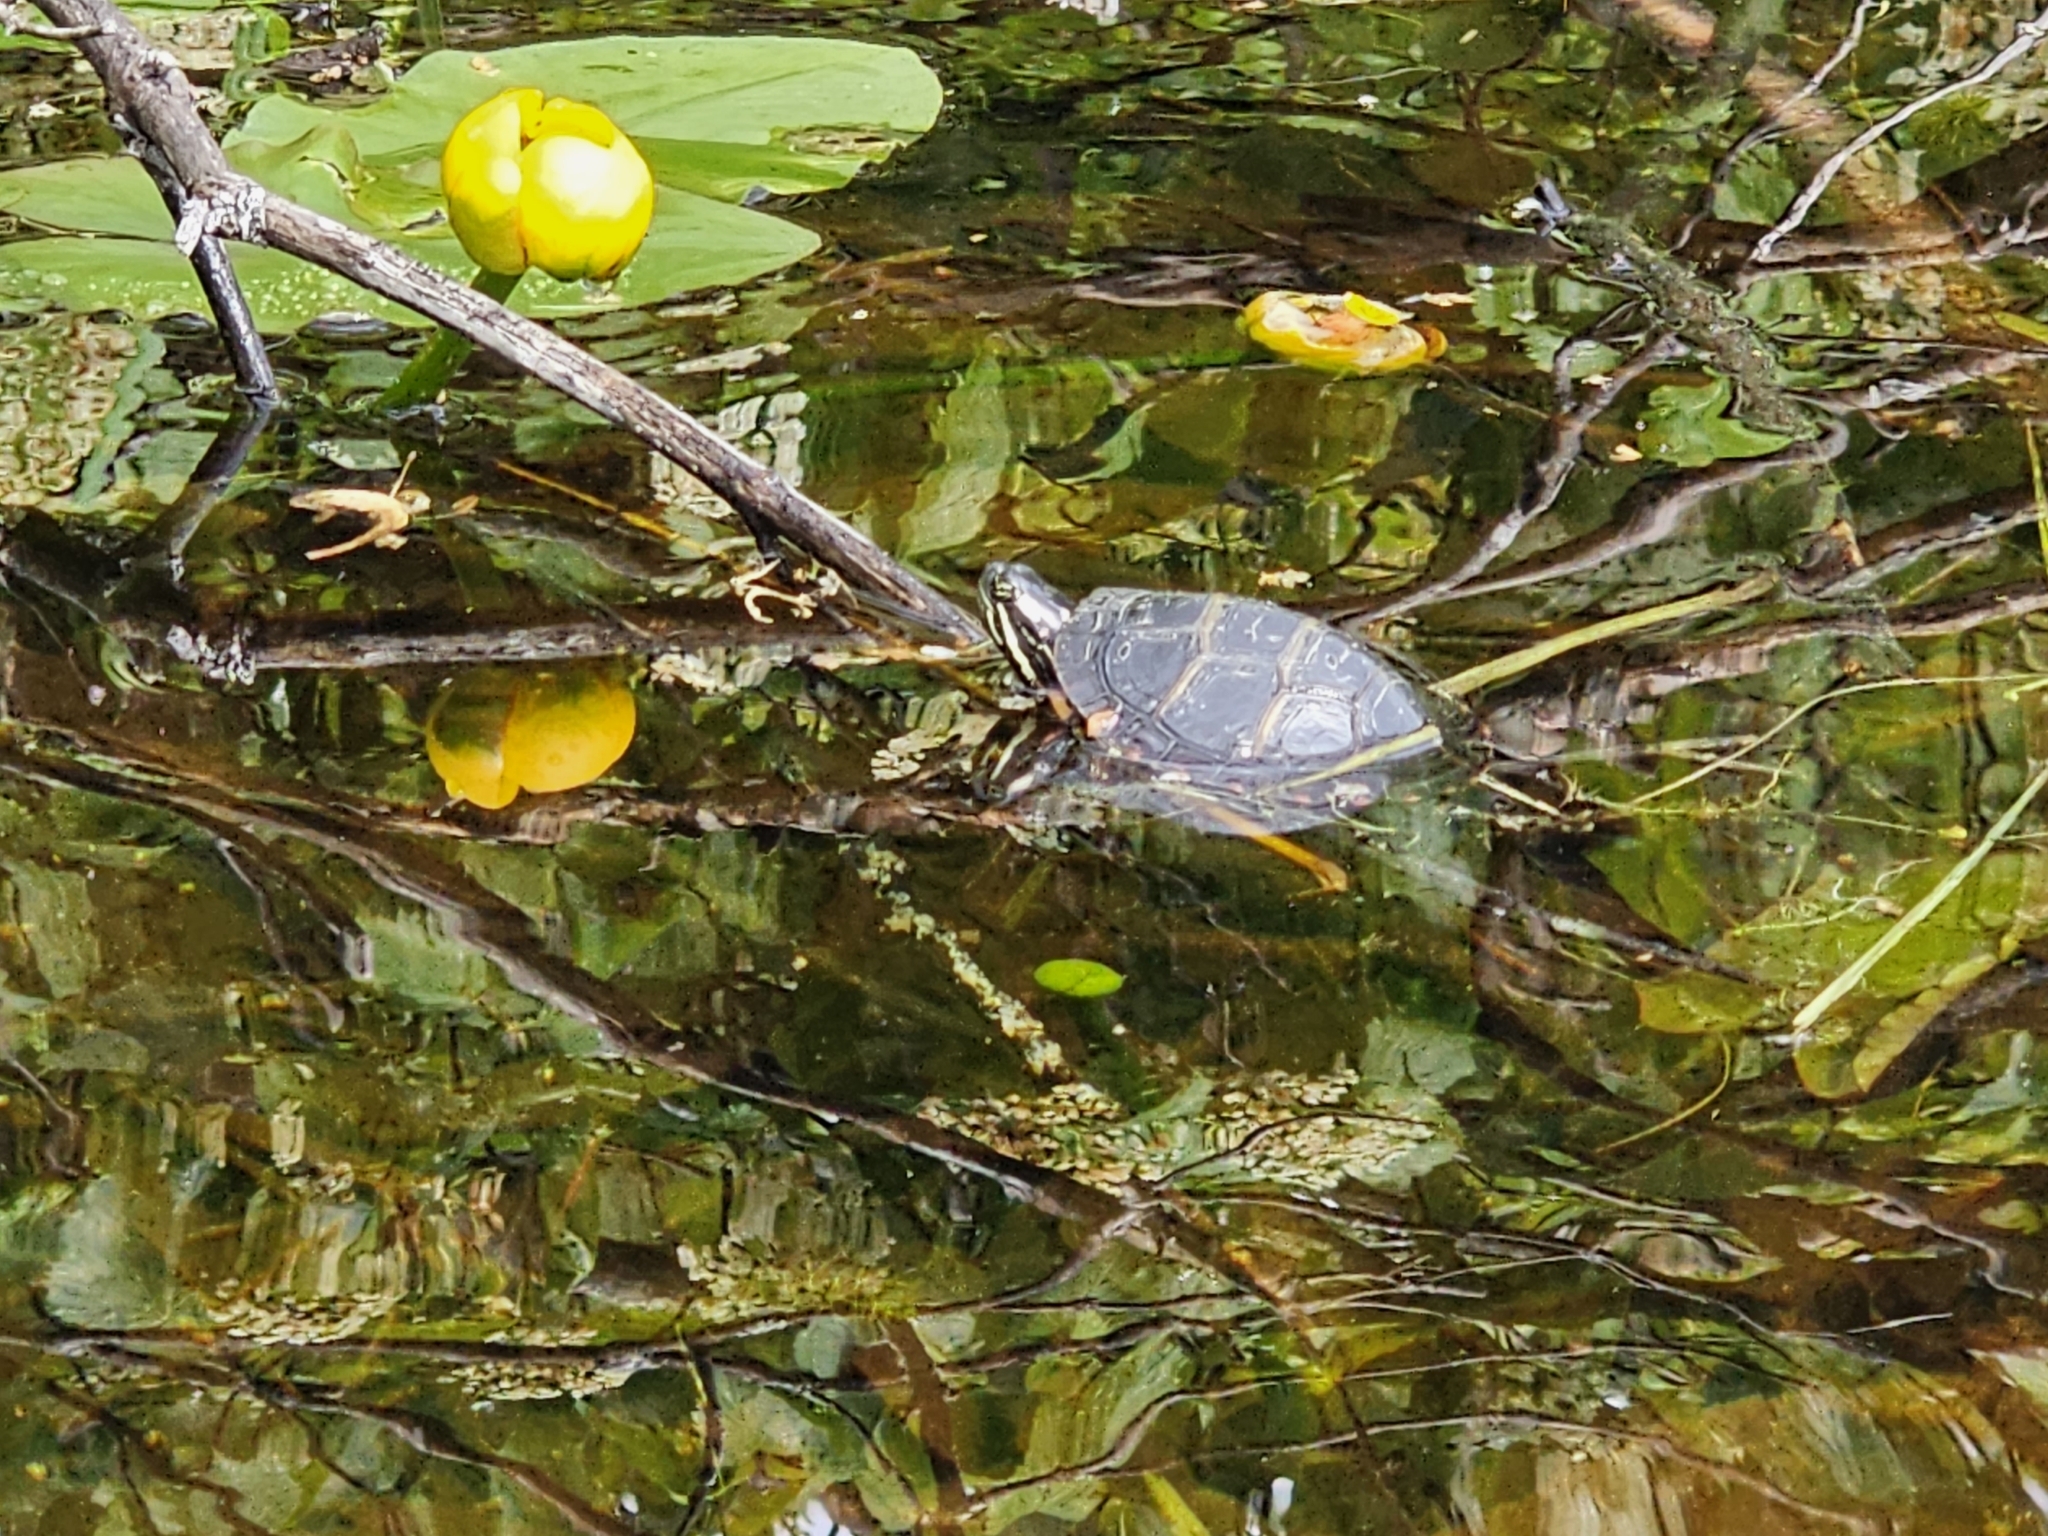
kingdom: Animalia
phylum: Chordata
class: Testudines
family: Emydidae
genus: Chrysemys
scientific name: Chrysemys picta
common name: Painted turtle
